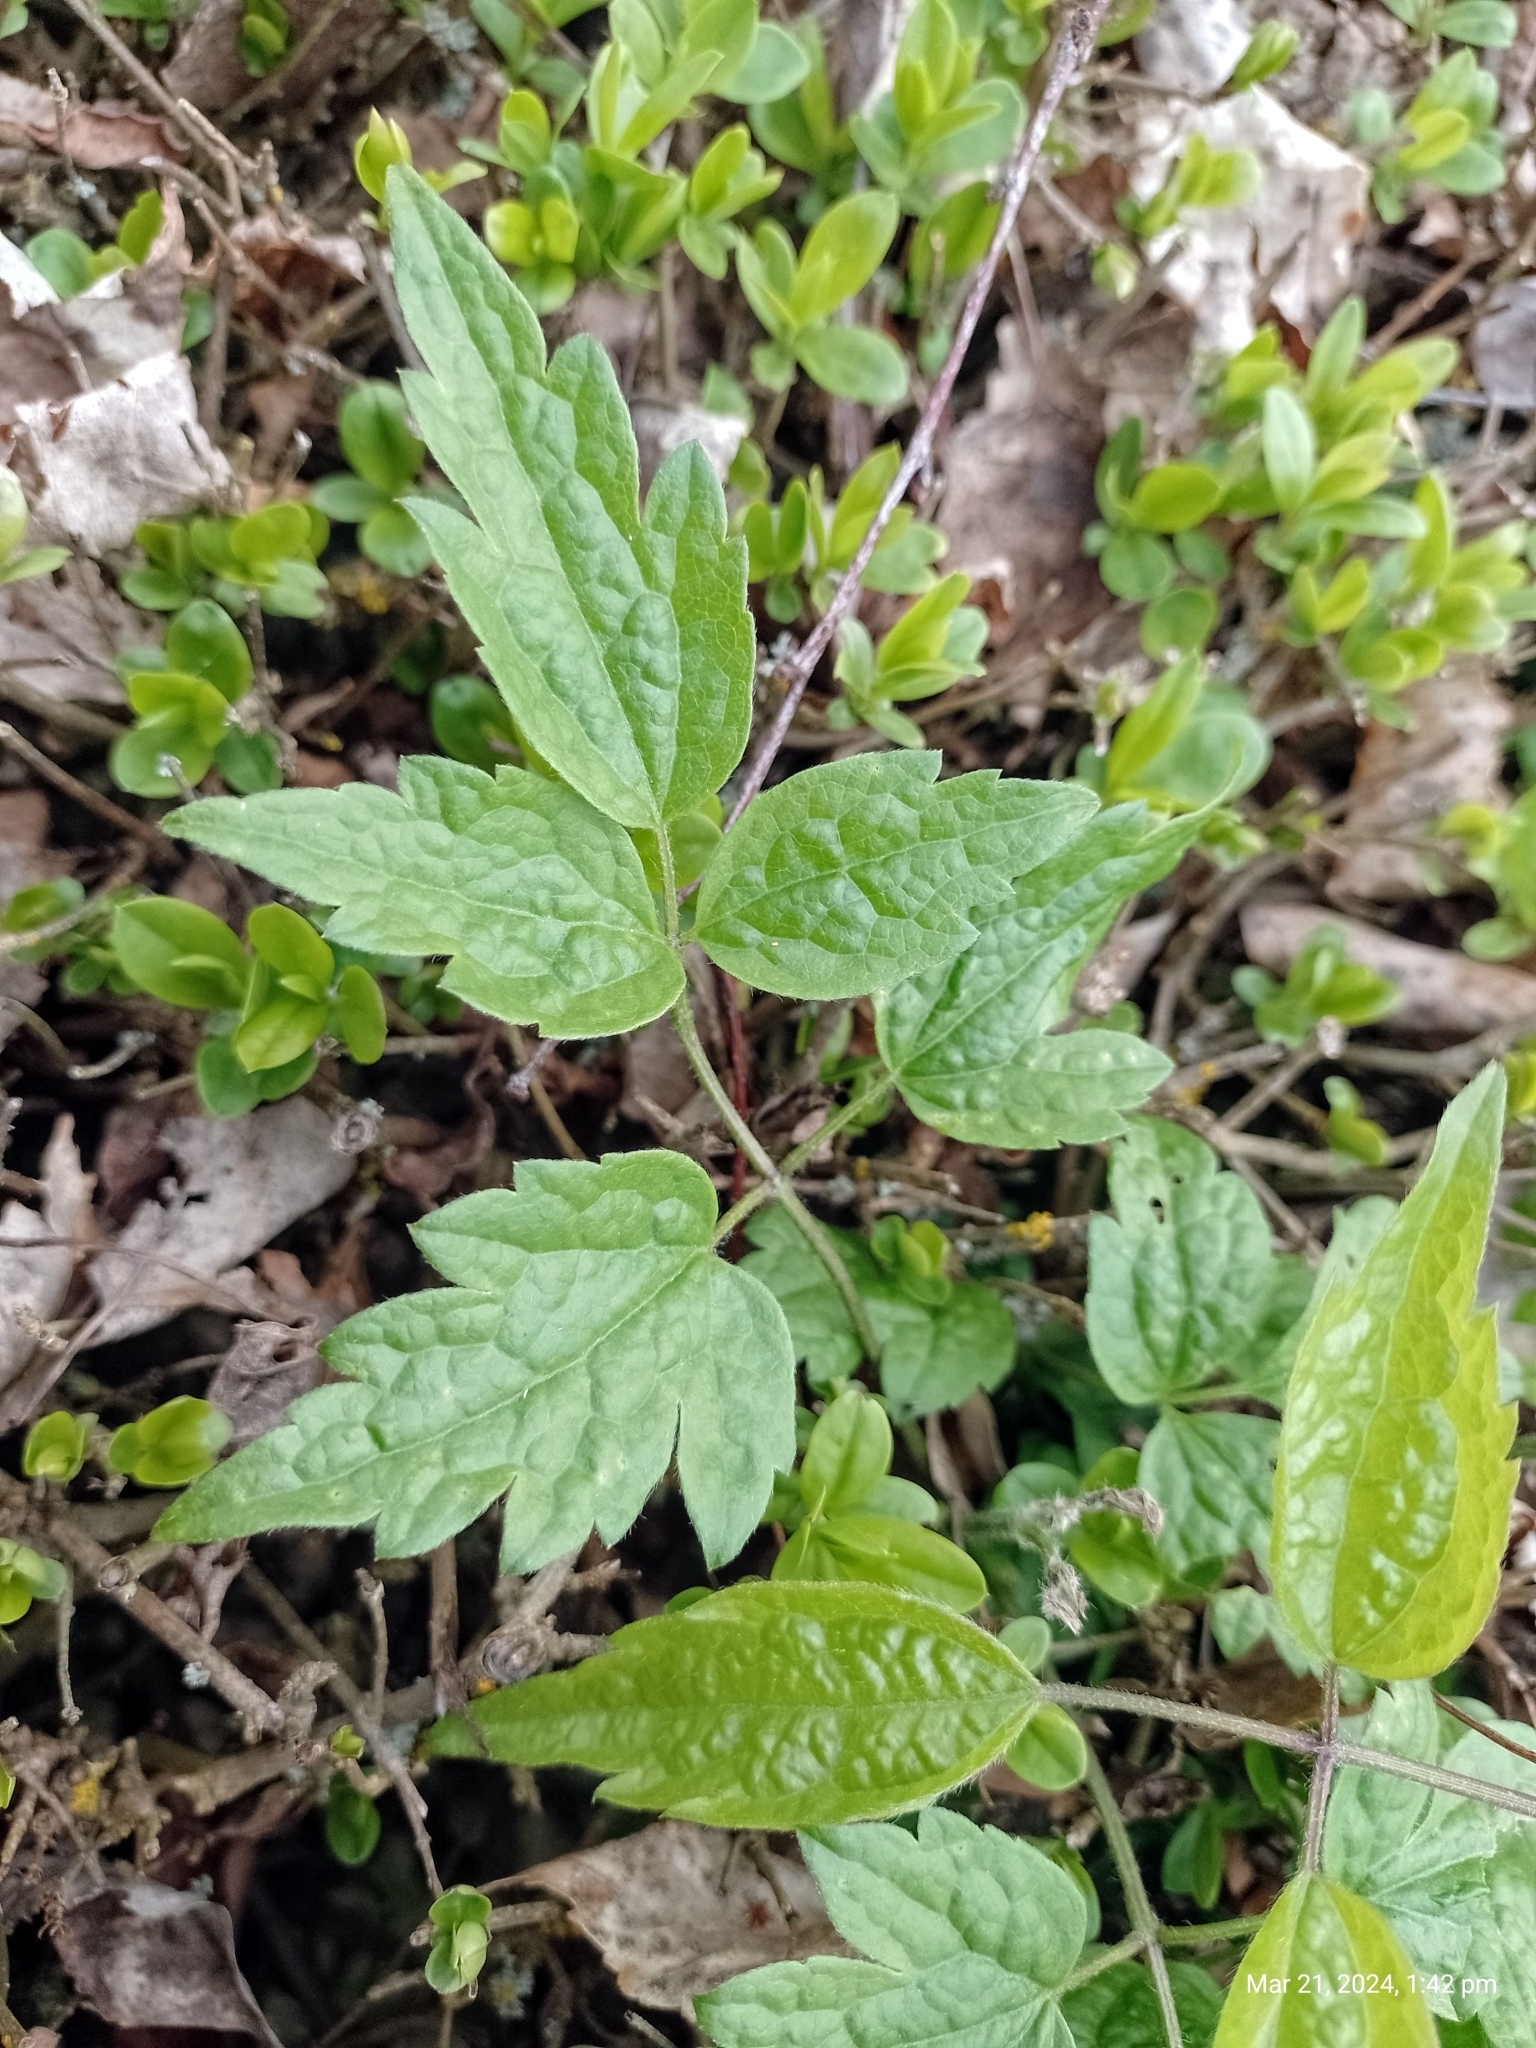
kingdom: Plantae
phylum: Tracheophyta
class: Magnoliopsida
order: Ranunculales
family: Ranunculaceae
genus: Clematis
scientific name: Clematis vitalba
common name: Evergreen clematis
